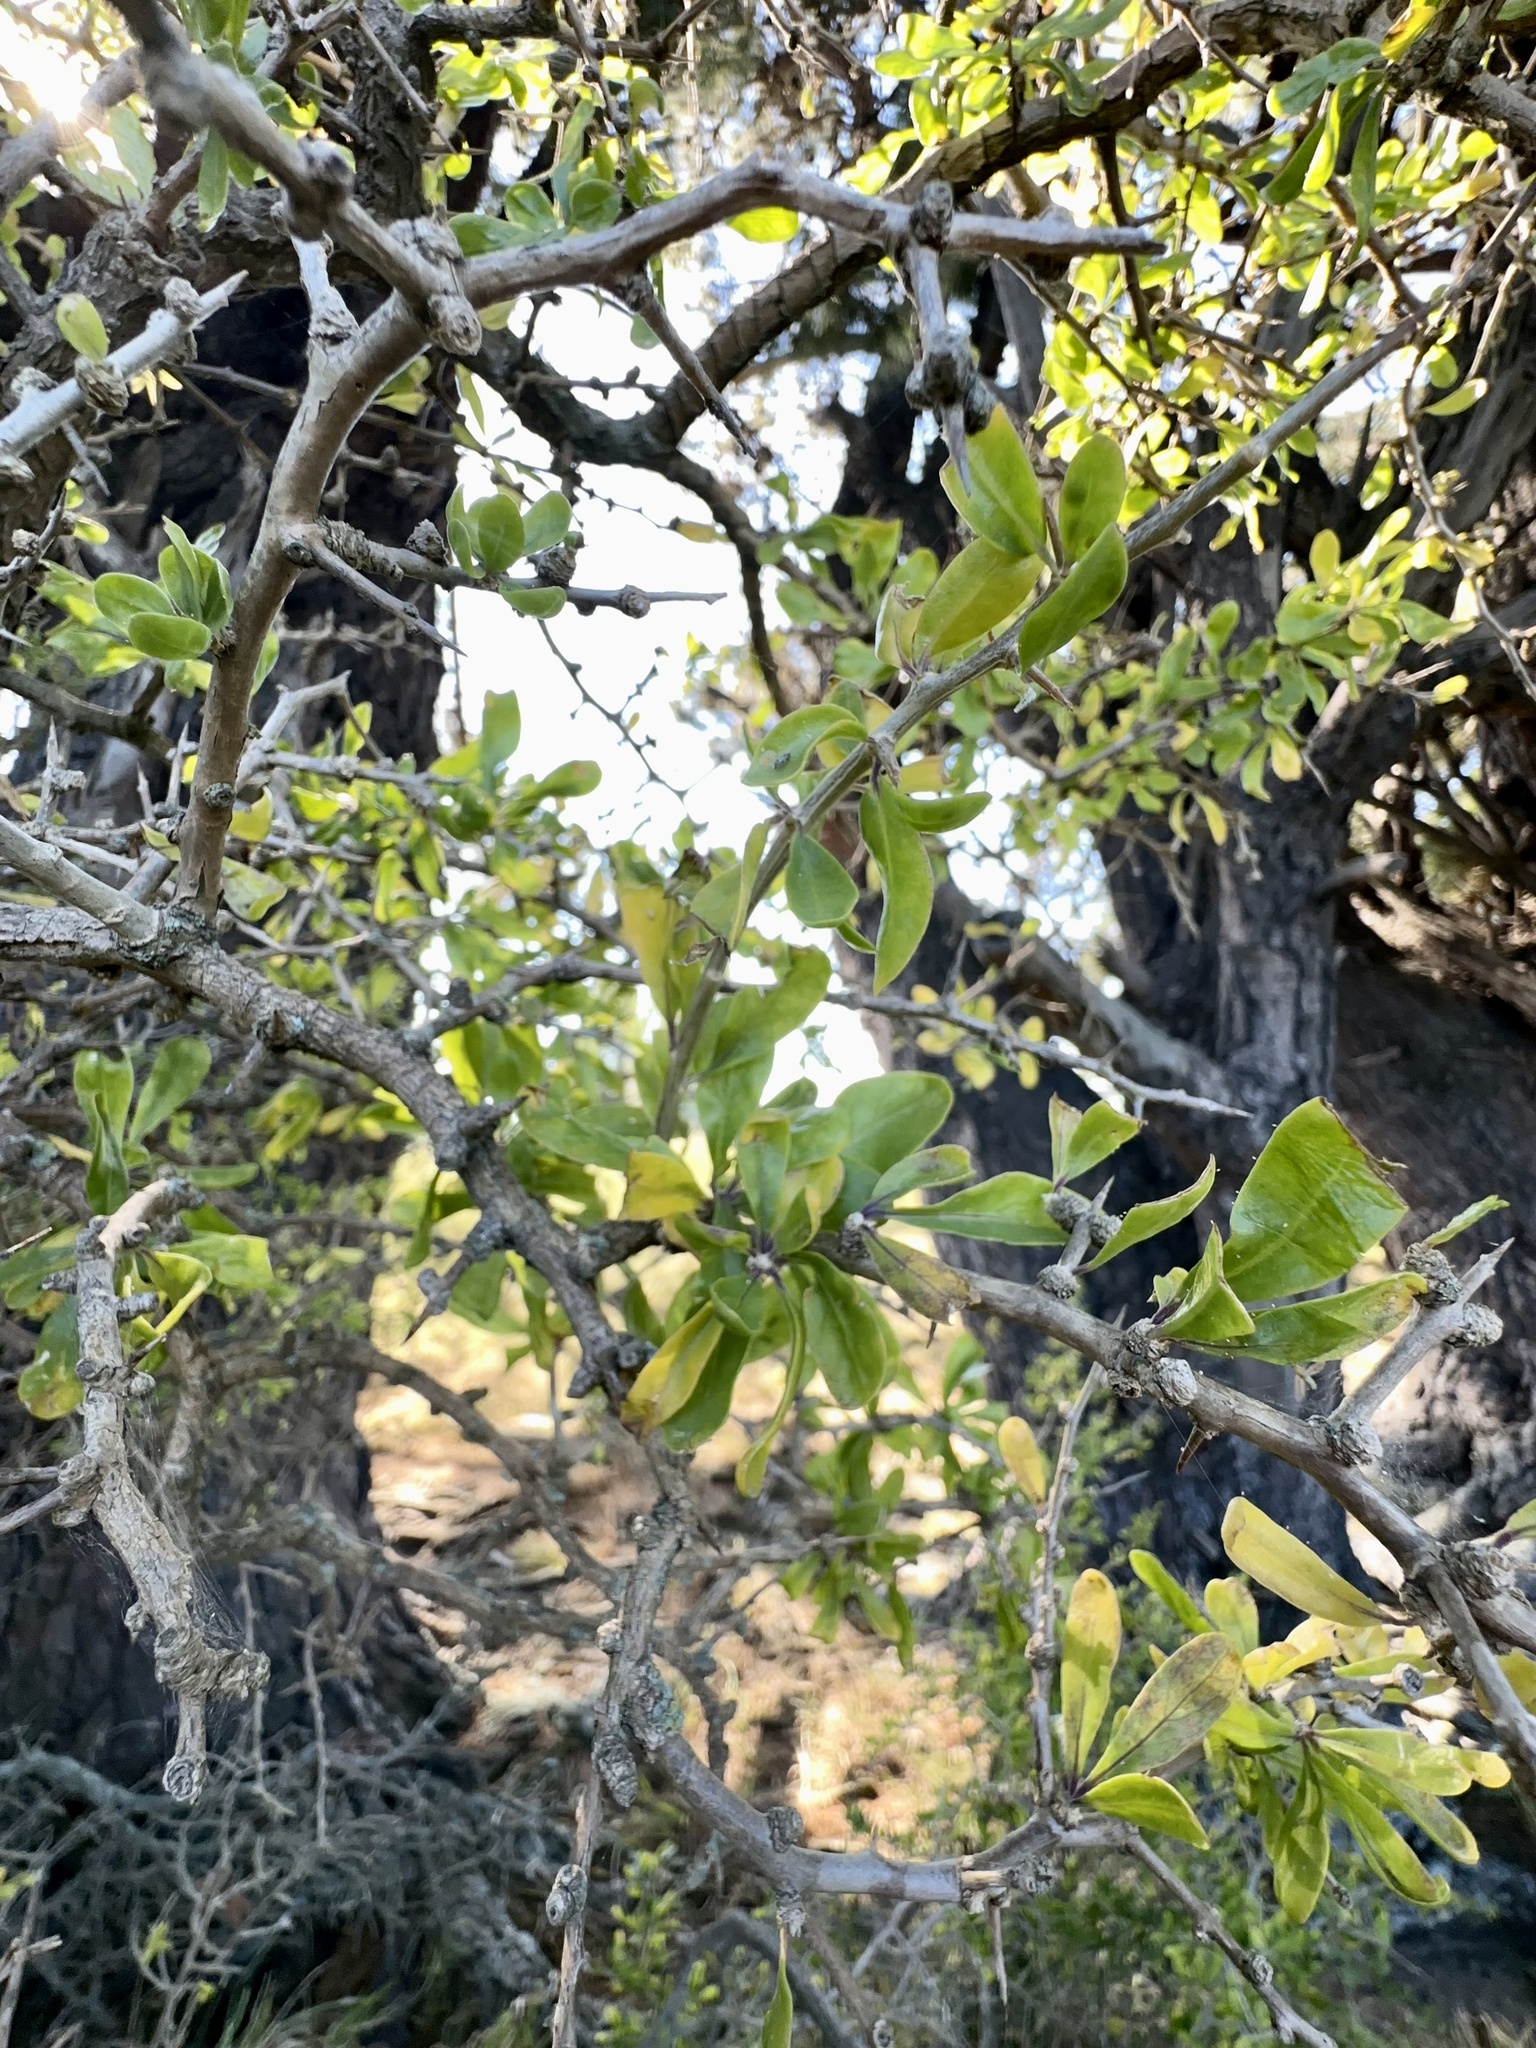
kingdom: Plantae
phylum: Tracheophyta
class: Magnoliopsida
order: Solanales
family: Solanaceae
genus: Lycium
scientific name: Lycium ferocissimum
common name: African boxthorn
